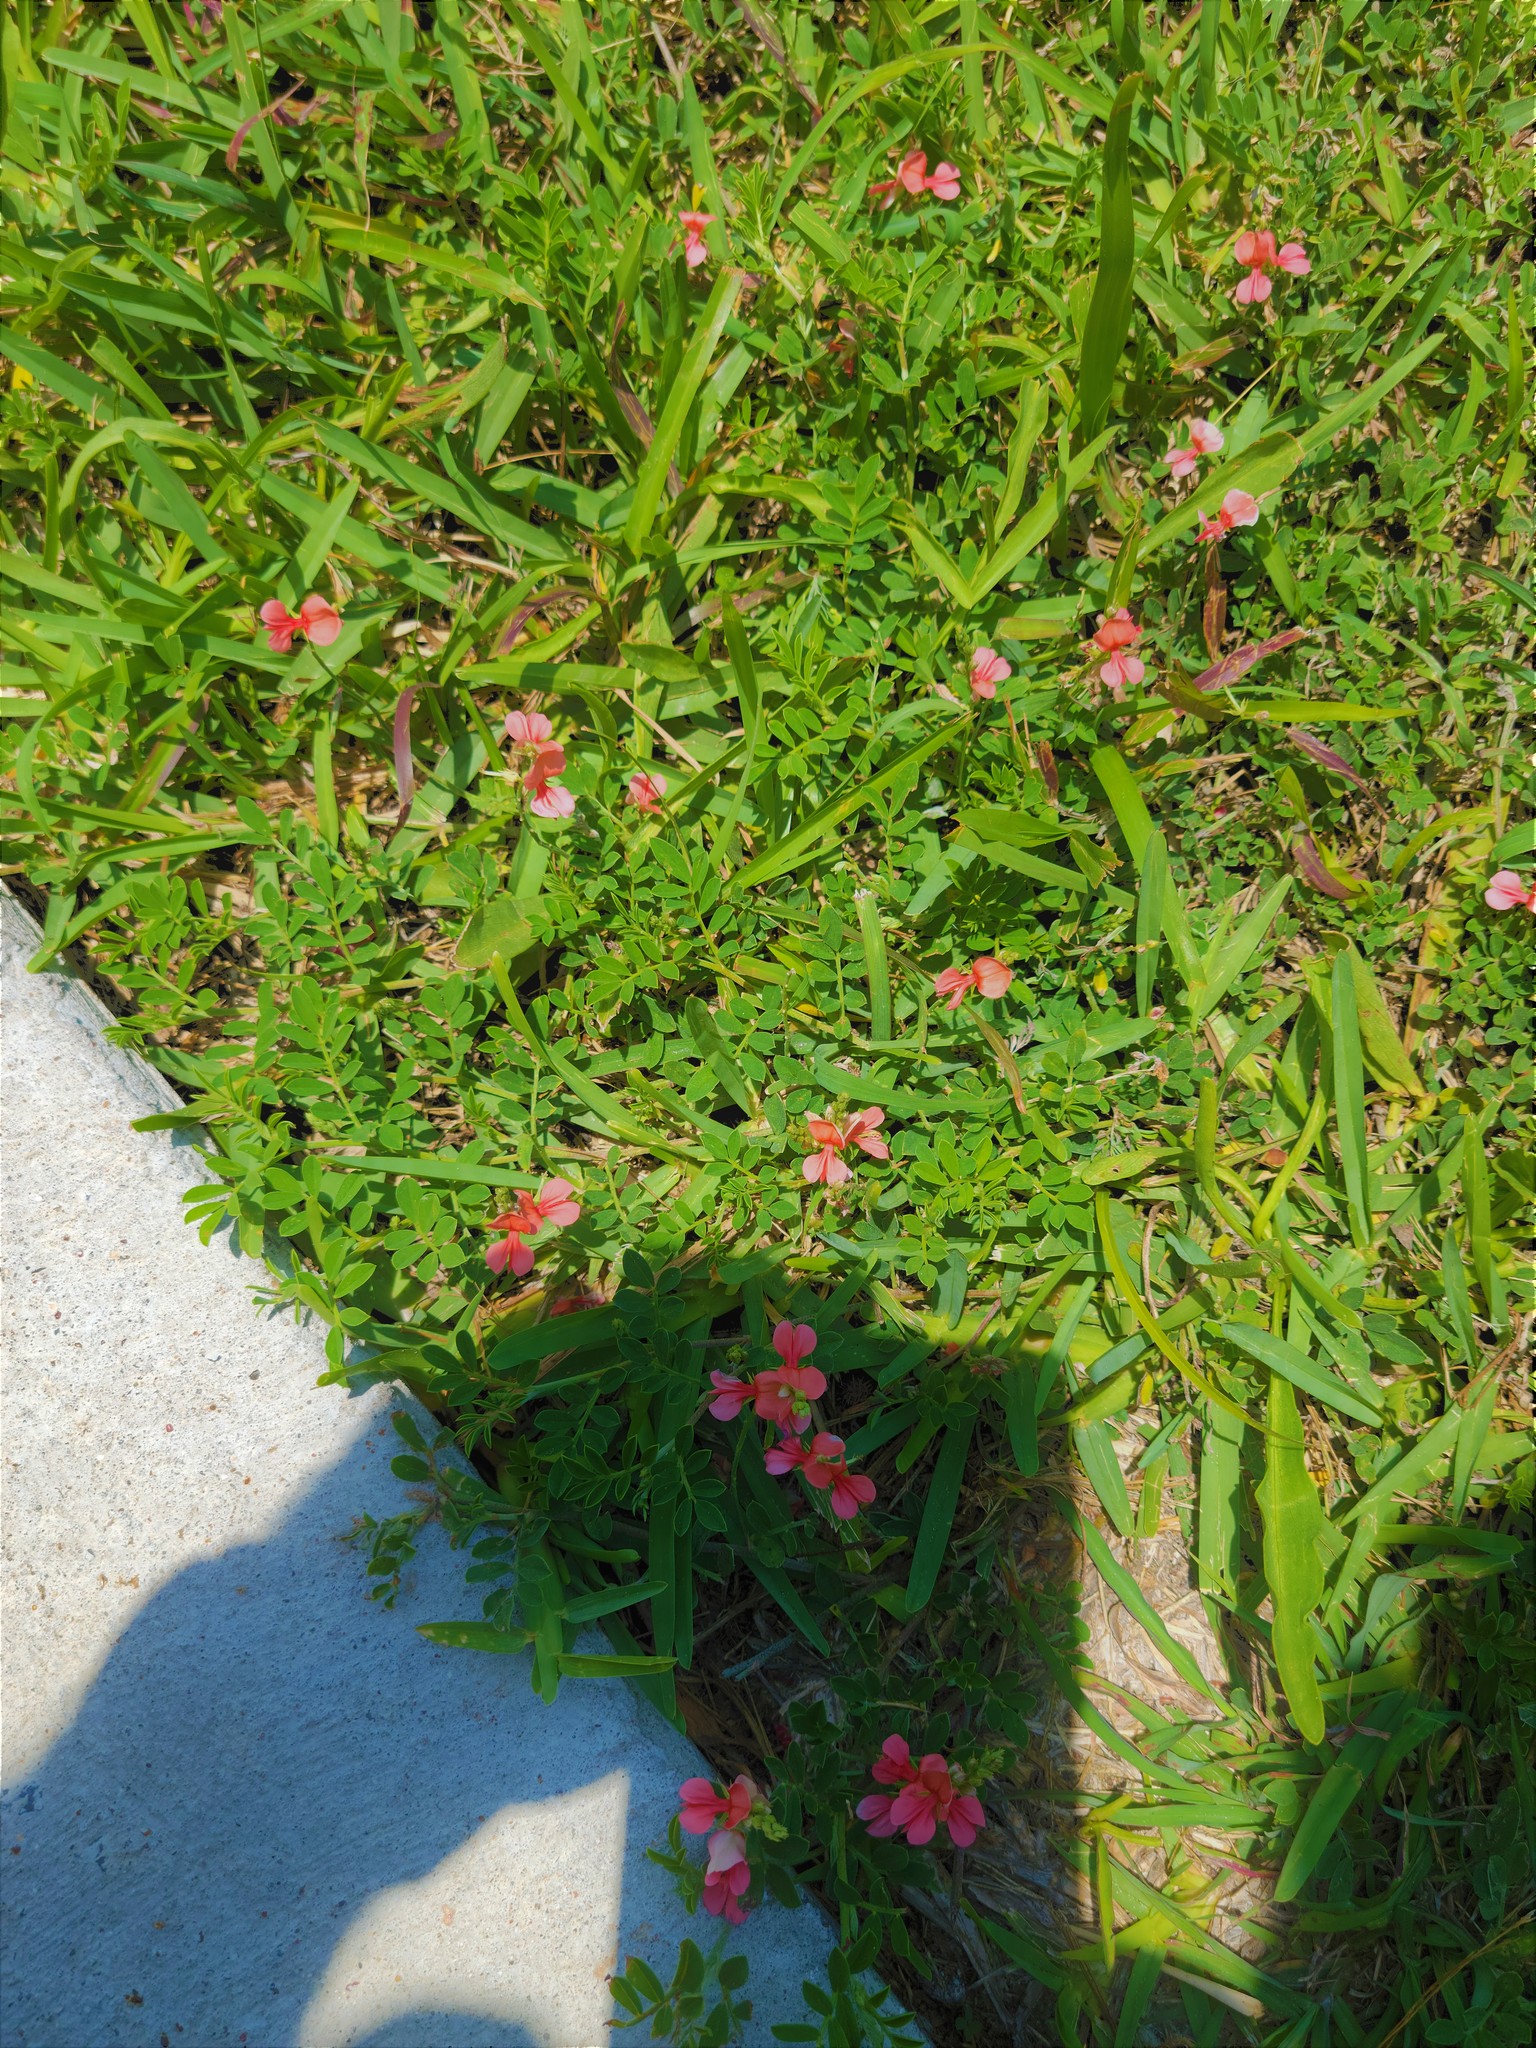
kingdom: Plantae
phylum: Tracheophyta
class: Magnoliopsida
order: Fabales
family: Fabaceae
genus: Indigofera
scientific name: Indigofera miniata
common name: Coast indigo
